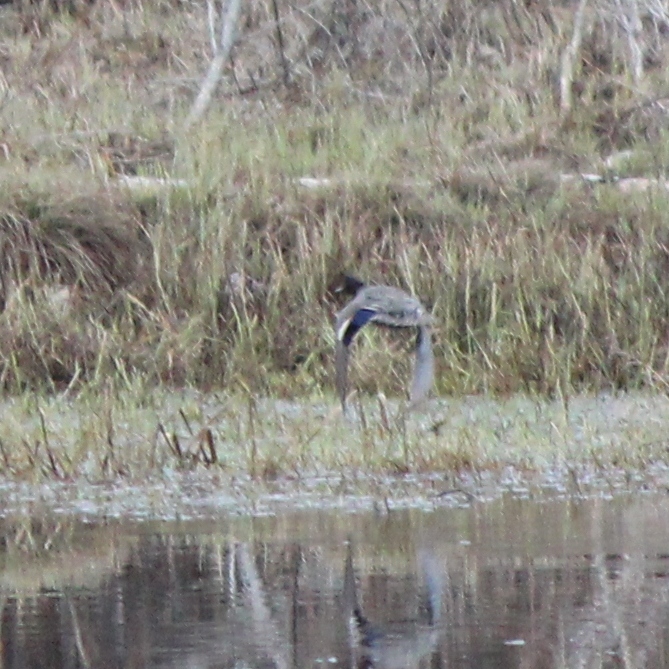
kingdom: Animalia
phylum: Chordata
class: Aves
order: Anseriformes
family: Anatidae
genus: Anas
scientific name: Anas crecca
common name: Eurasian teal
